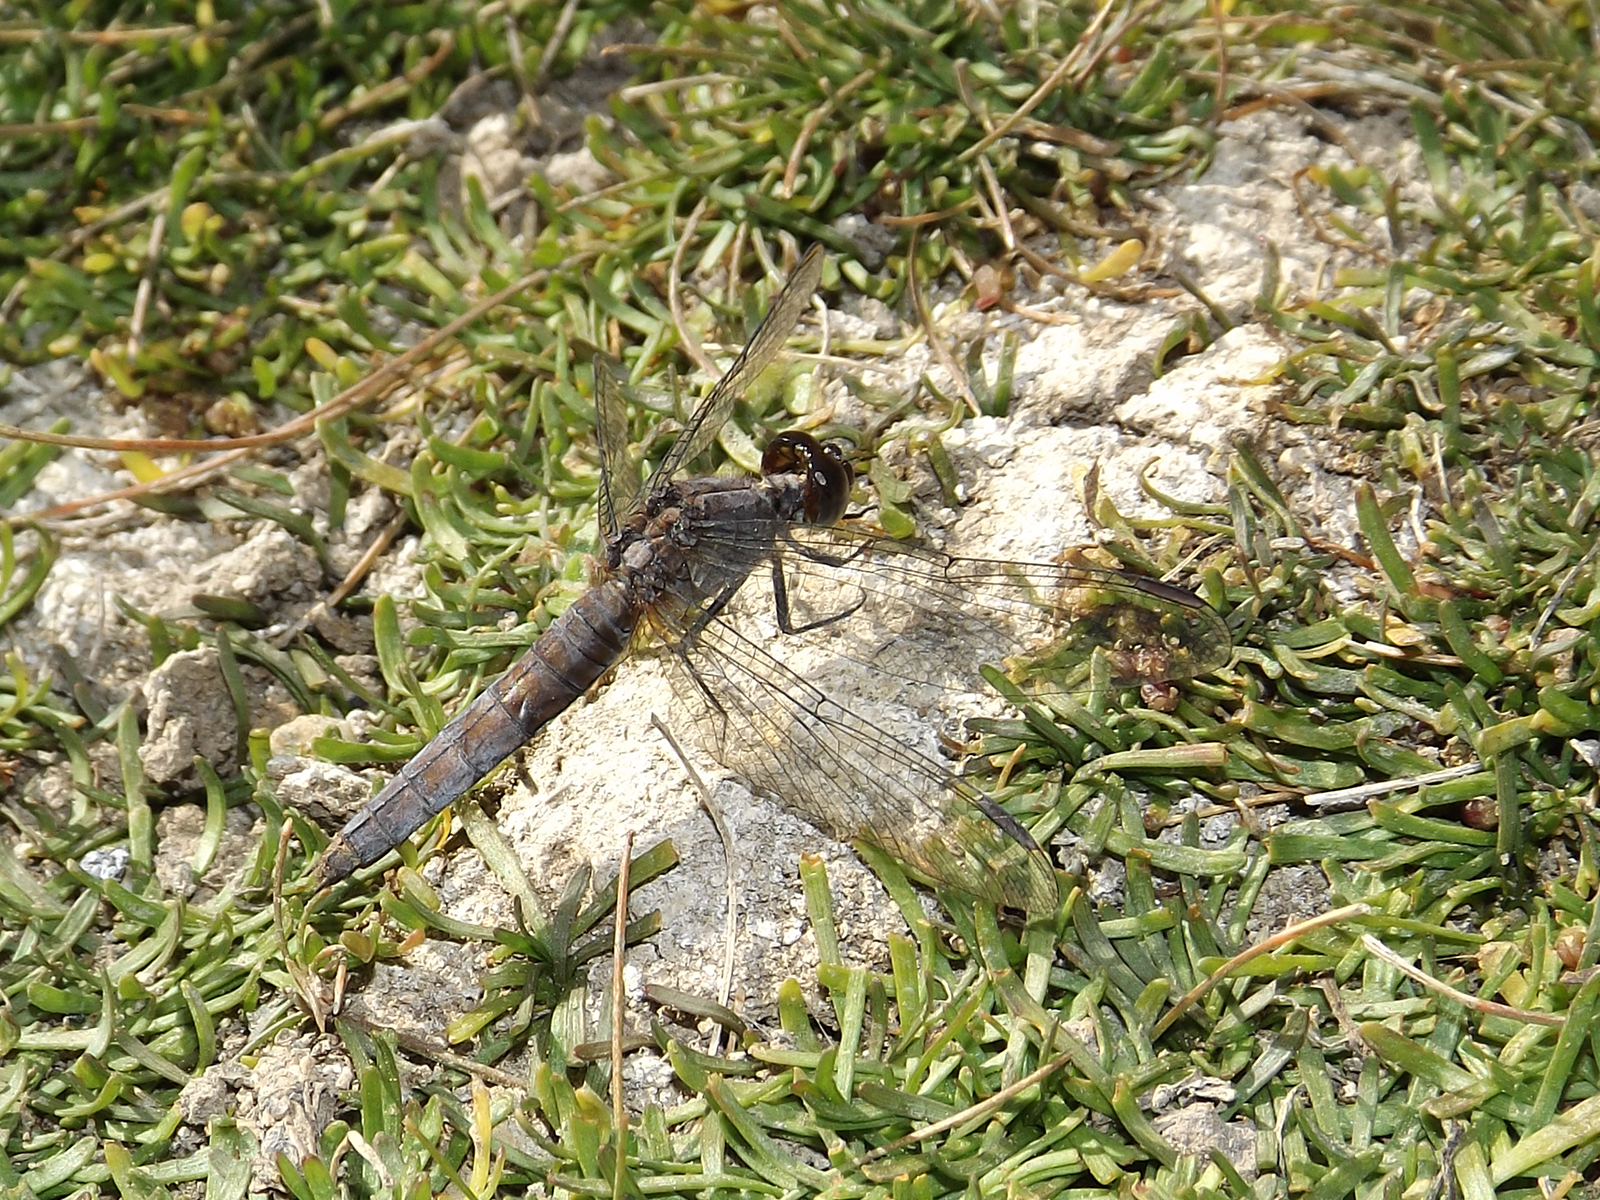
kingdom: Animalia
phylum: Arthropoda
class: Insecta
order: Odonata
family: Libellulidae
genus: Erythrodiplax
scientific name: Erythrodiplax connata
